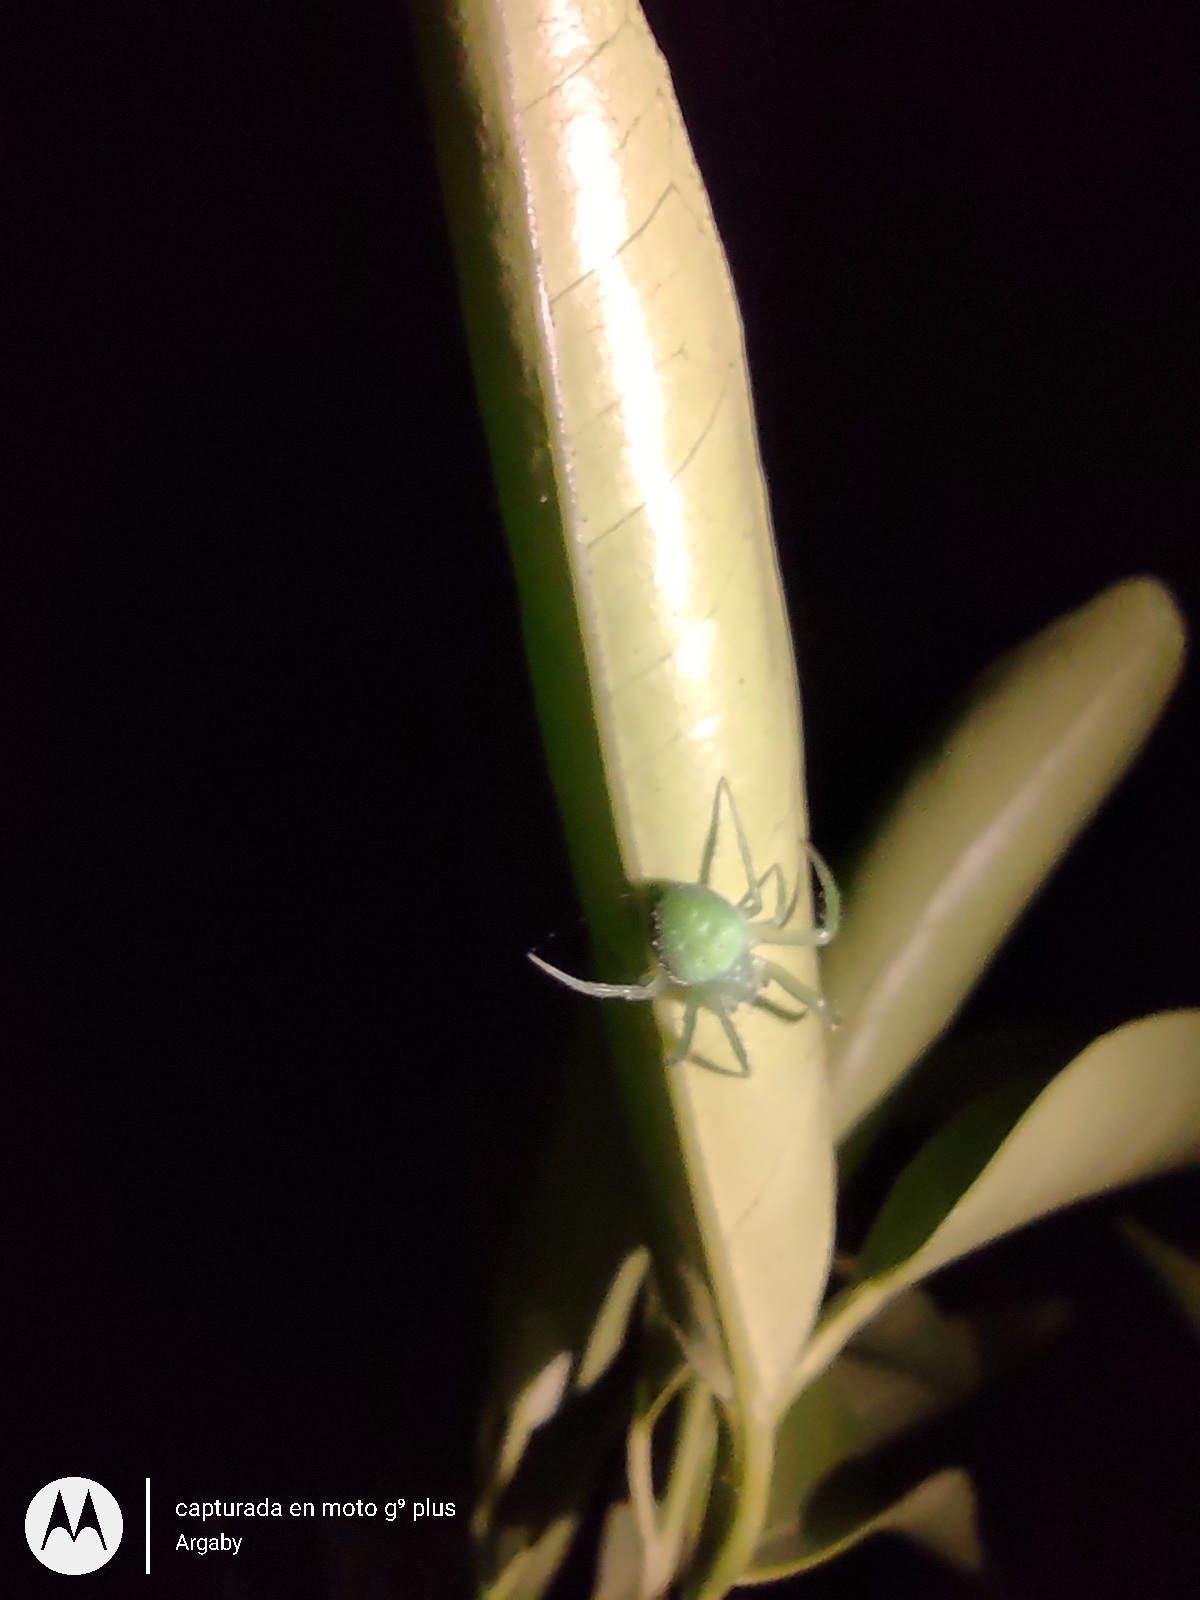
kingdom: Animalia
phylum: Arthropoda
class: Arachnida
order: Araneae
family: Araneidae
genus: Araneus
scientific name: Araneus uniformis
